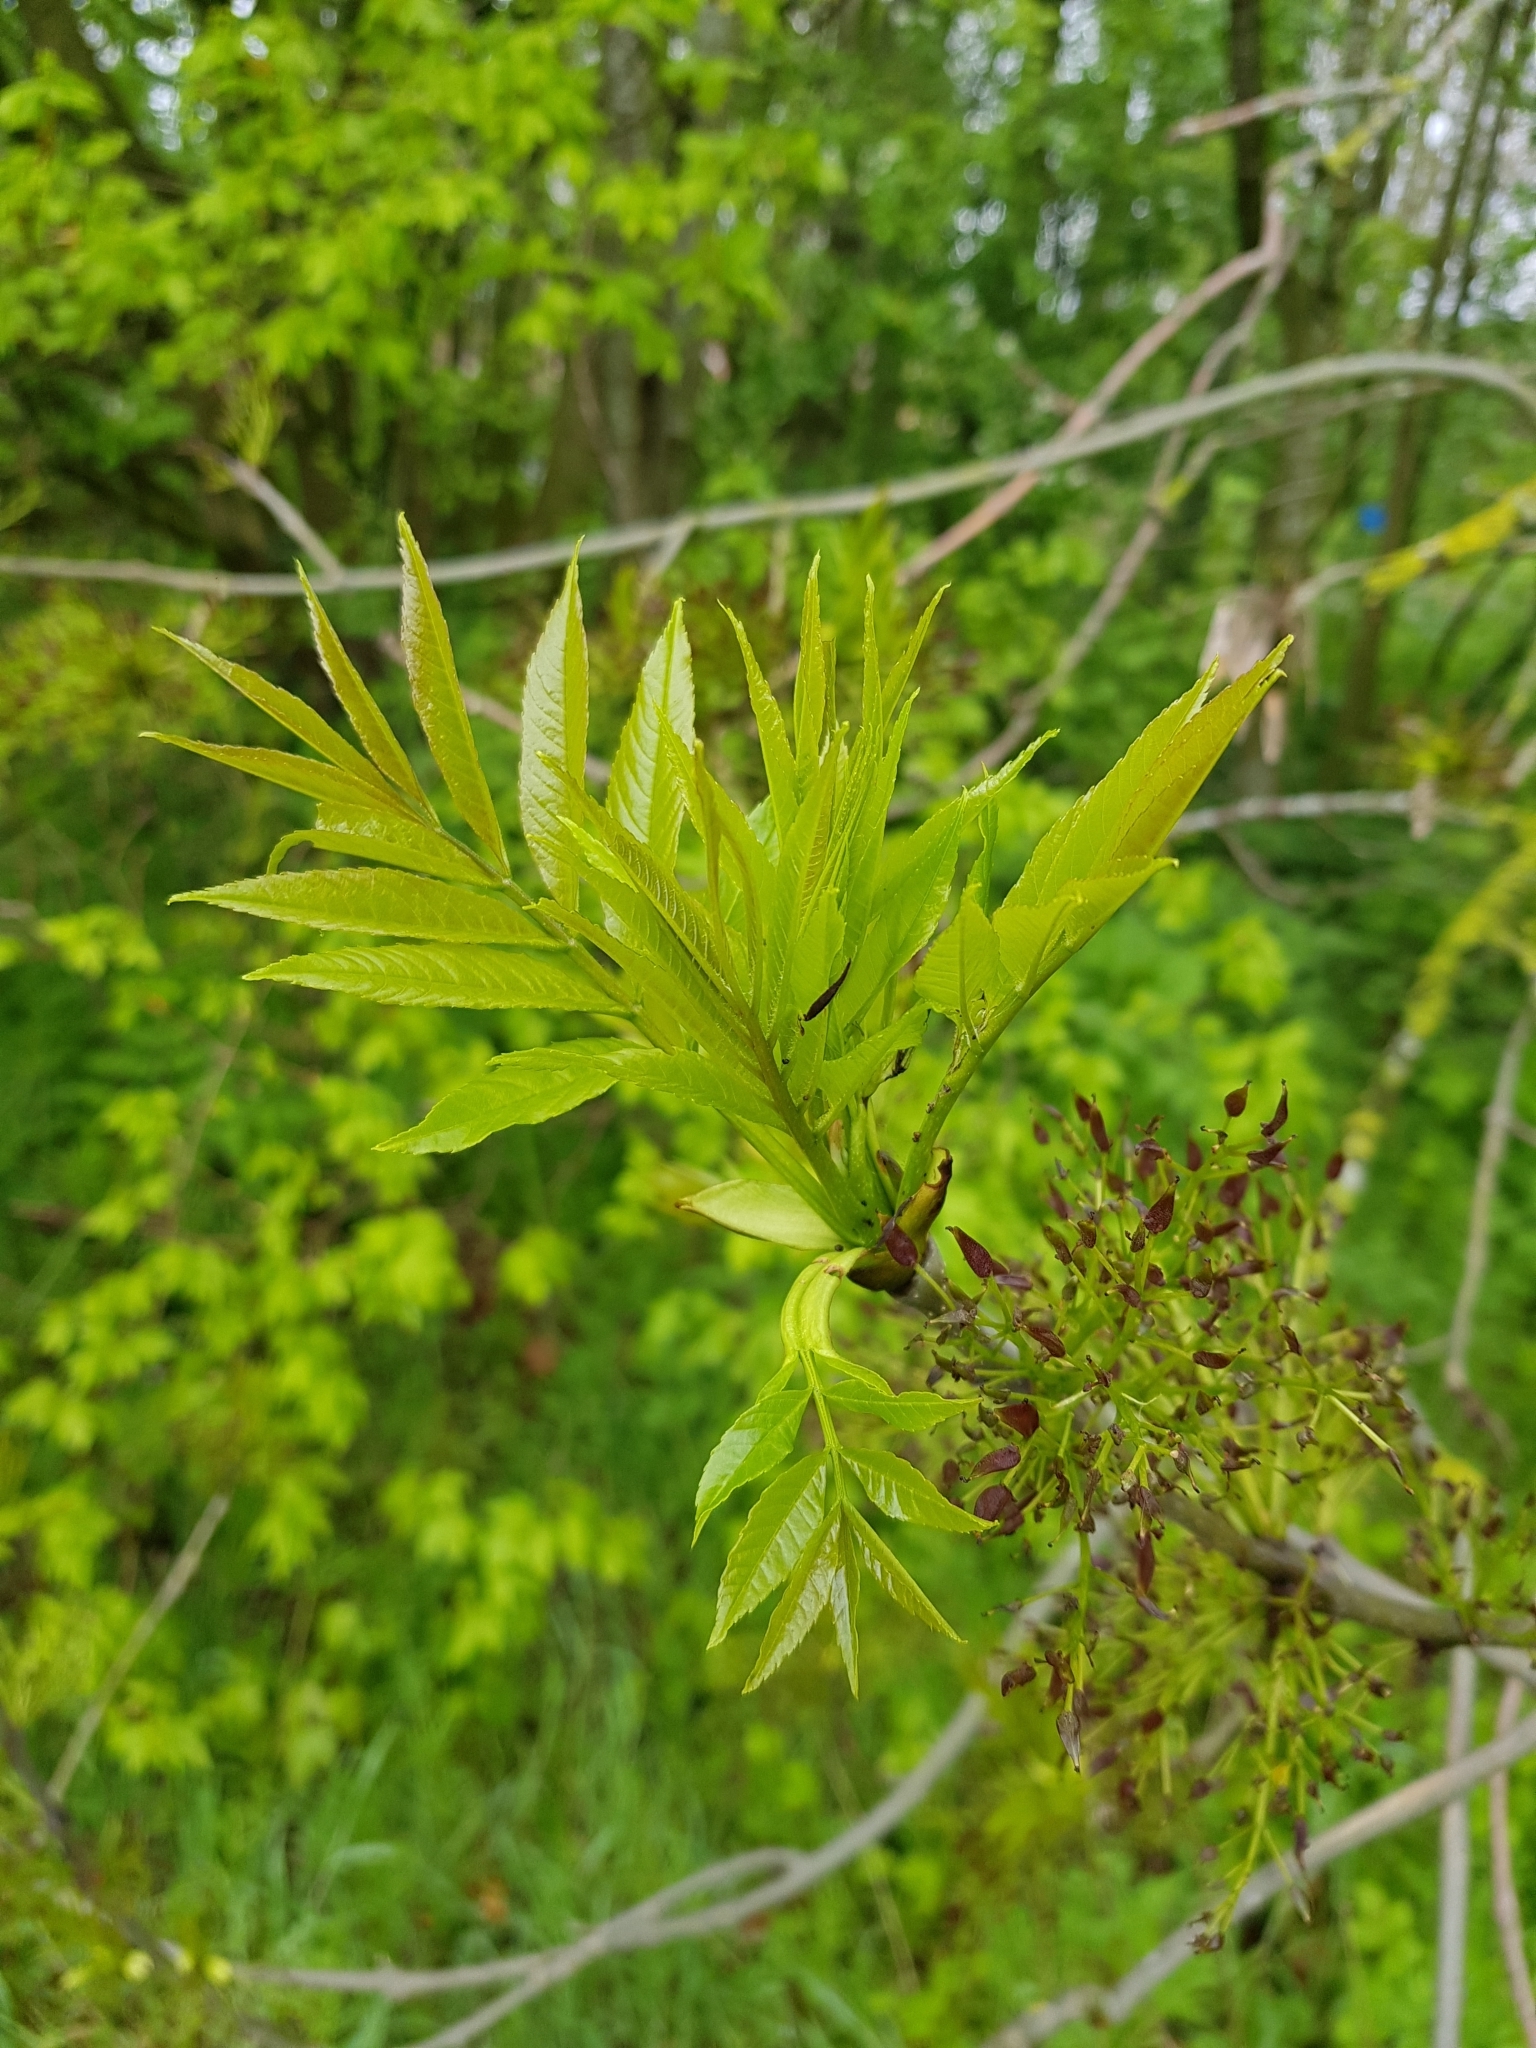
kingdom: Plantae
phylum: Tracheophyta
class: Magnoliopsida
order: Lamiales
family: Oleaceae
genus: Fraxinus
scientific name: Fraxinus excelsior
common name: European ash
